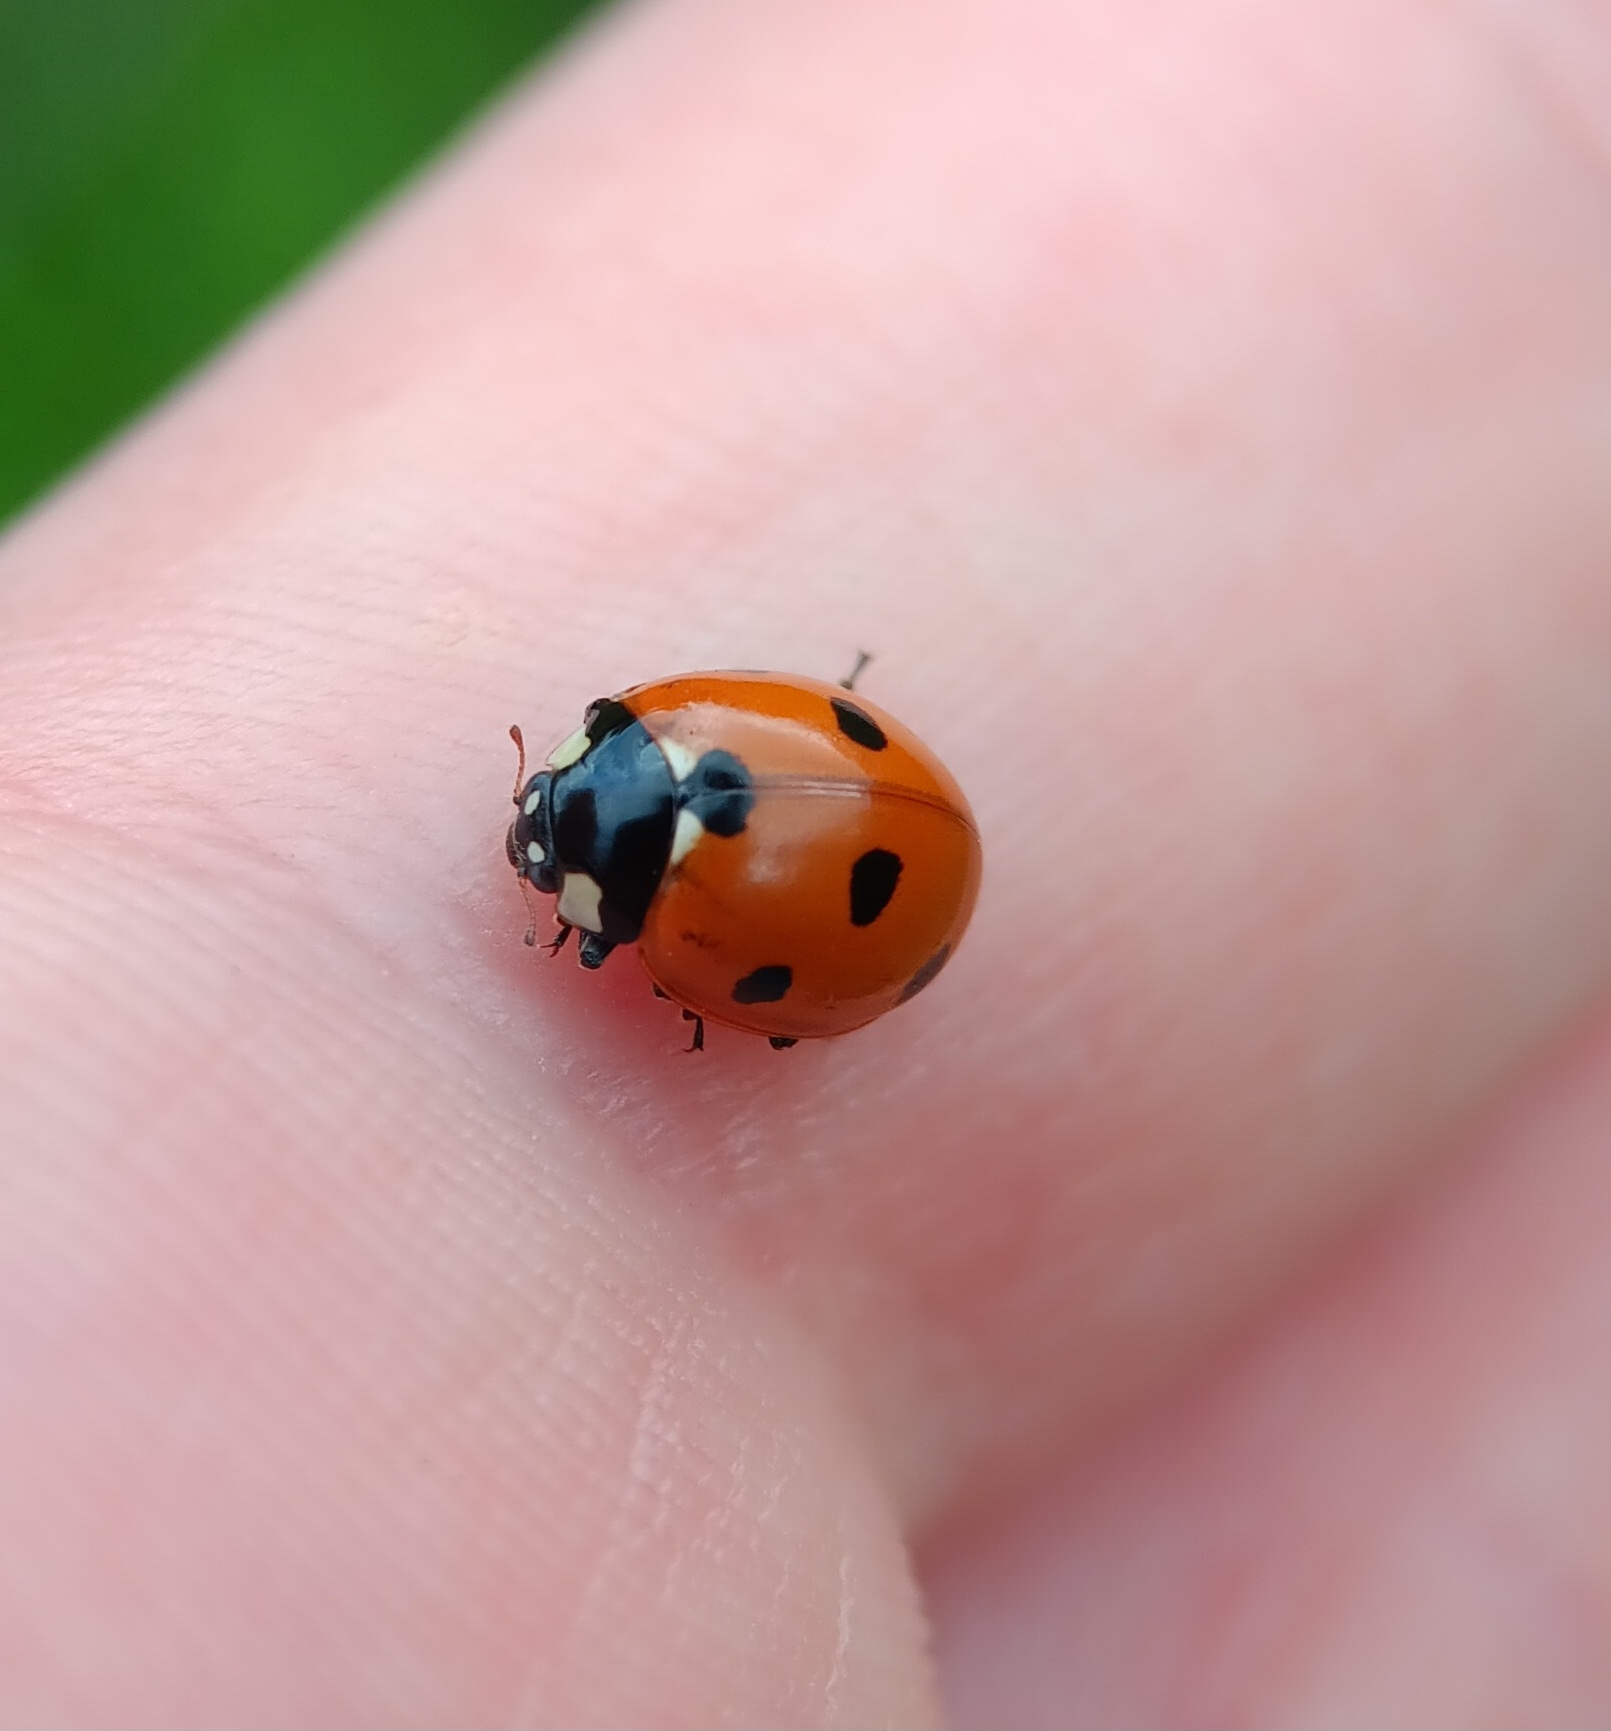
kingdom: Animalia
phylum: Arthropoda
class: Insecta
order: Coleoptera
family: Coccinellidae
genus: Coccinella
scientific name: Coccinella septempunctata
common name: Sevenspotted lady beetle
